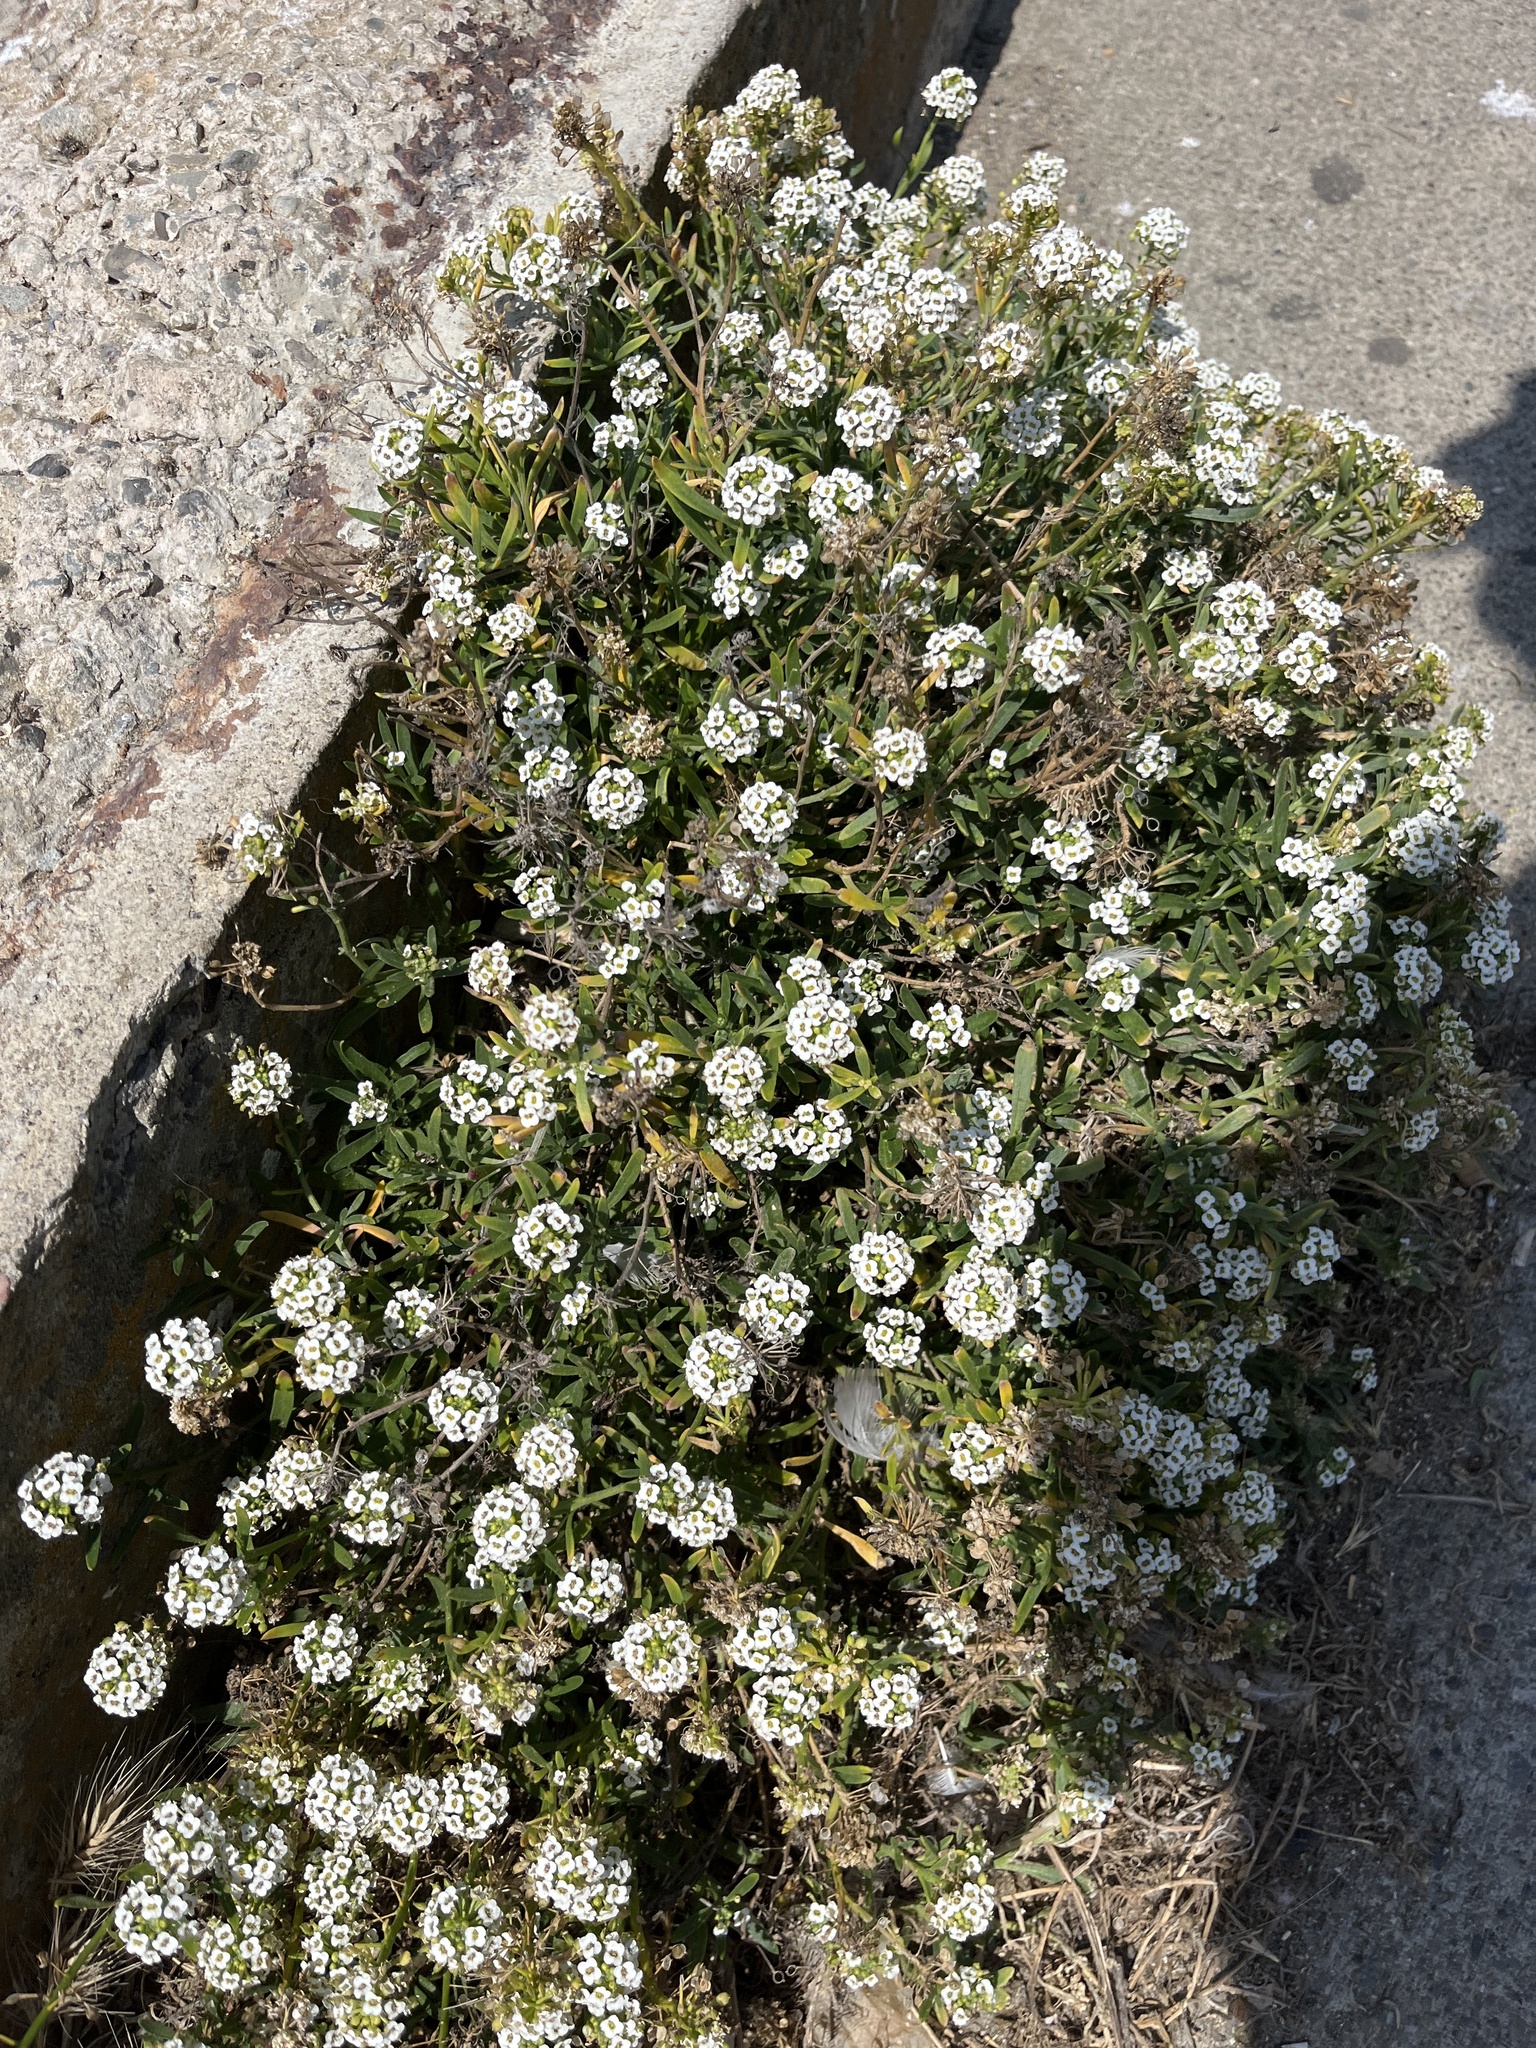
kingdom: Plantae
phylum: Tracheophyta
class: Magnoliopsida
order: Brassicales
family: Brassicaceae
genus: Lobularia
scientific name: Lobularia maritima
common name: Sweet alison
